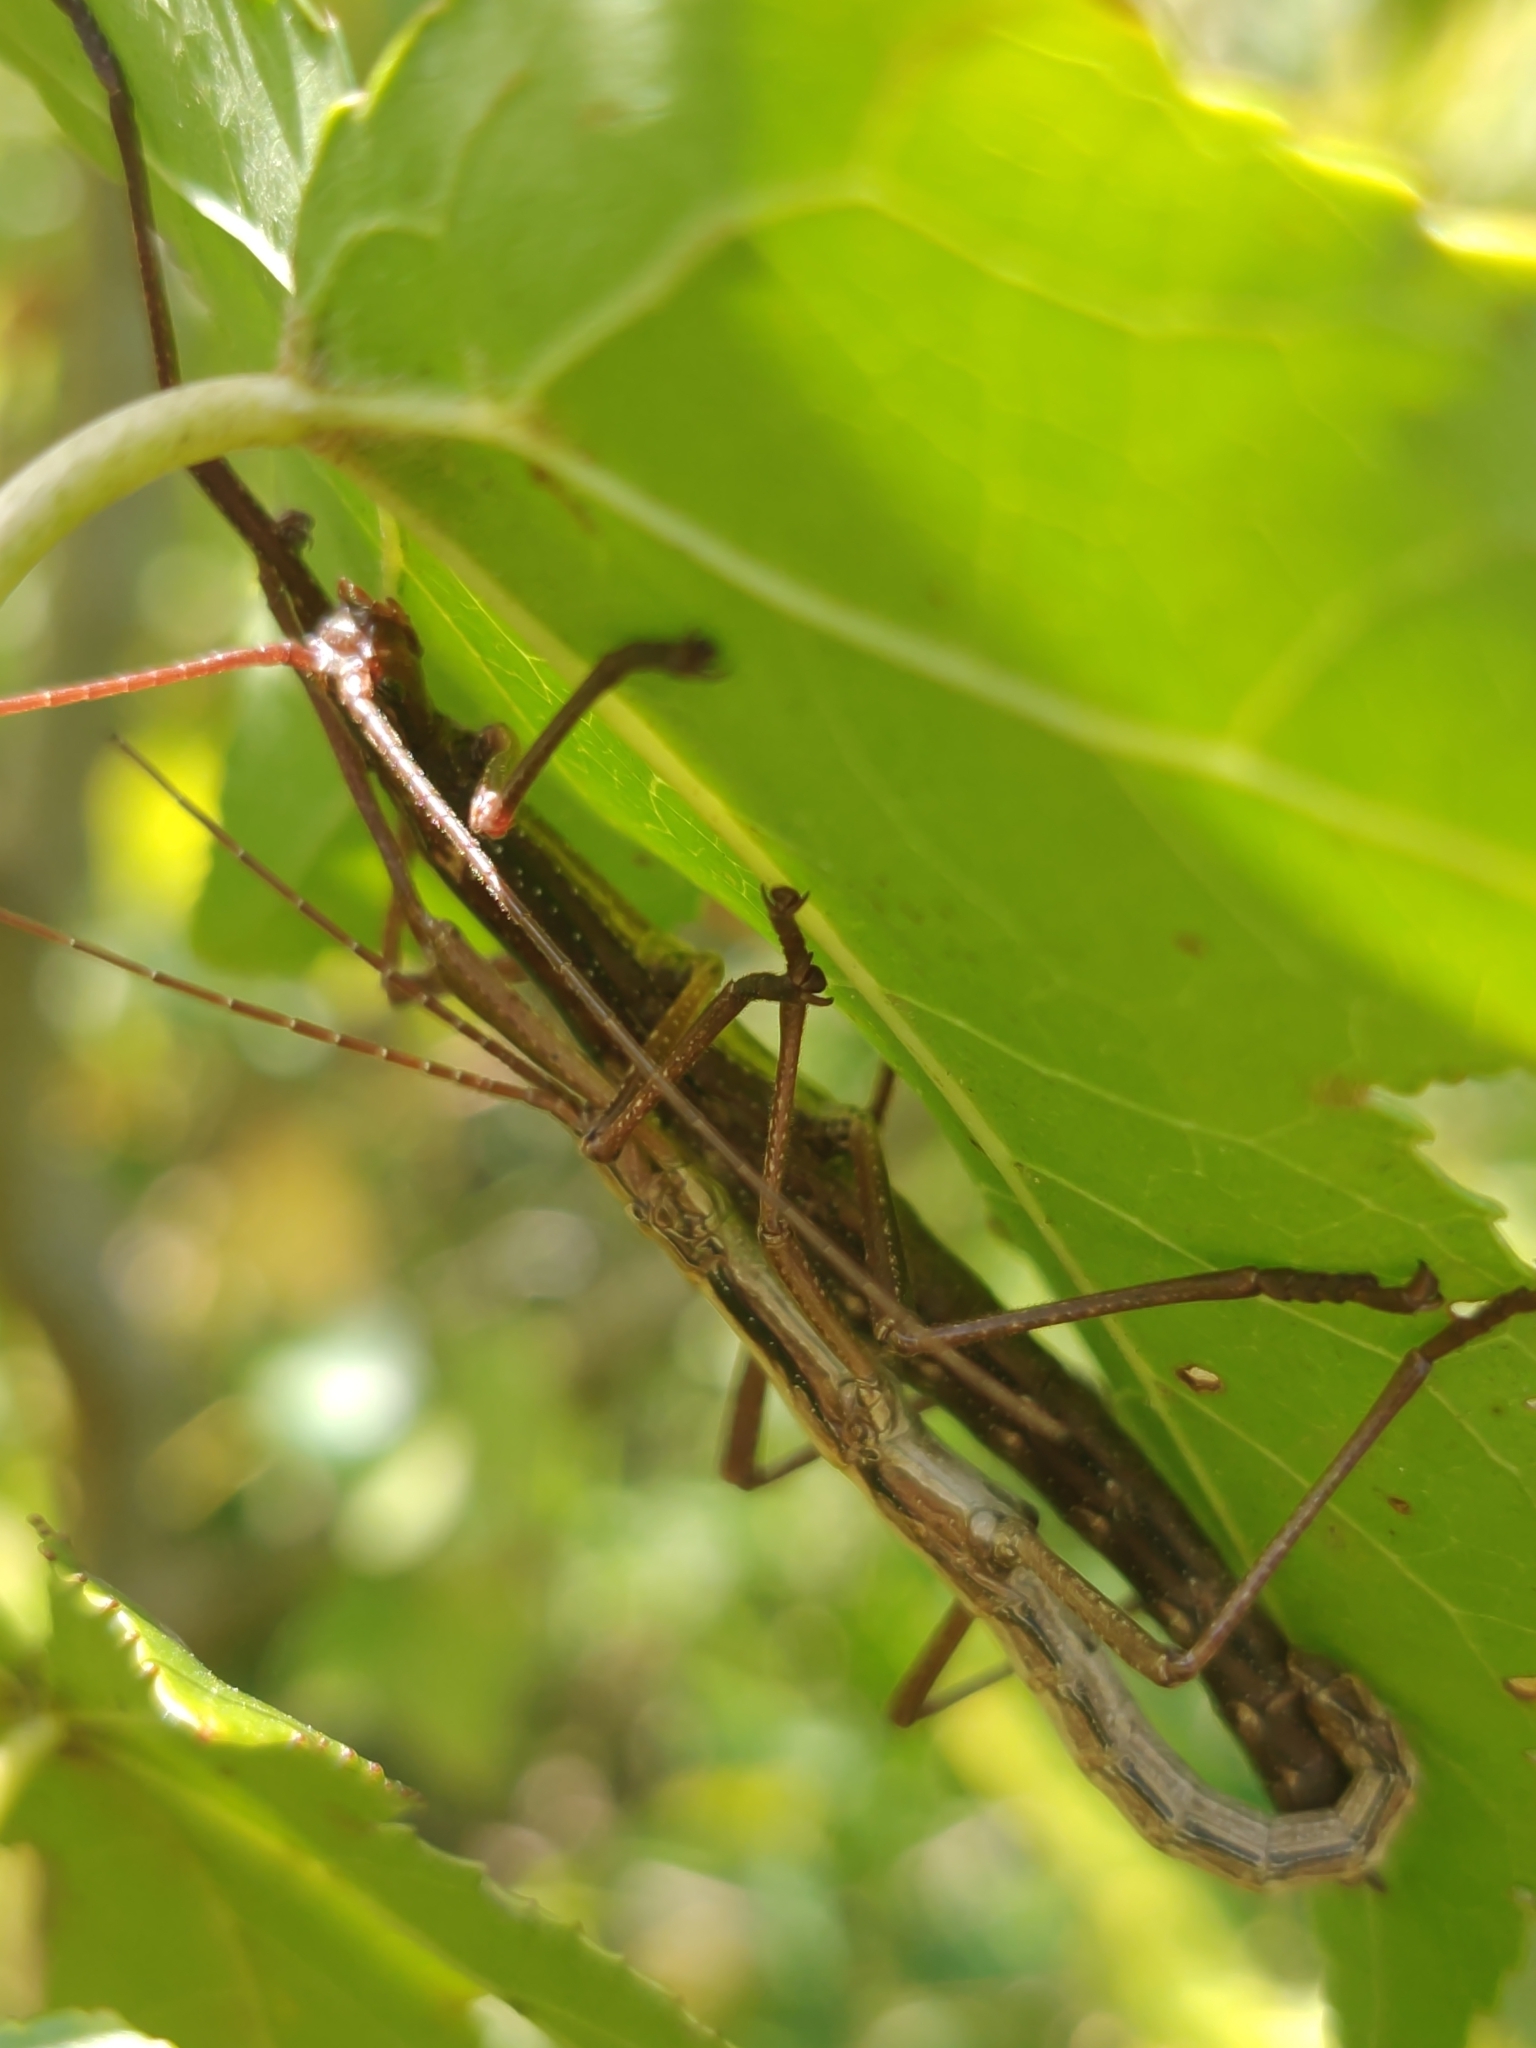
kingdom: Animalia
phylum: Arthropoda
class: Insecta
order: Phasmida
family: Pseudophasmatidae
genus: Anisomorpha
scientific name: Anisomorpha buprestoides
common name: Florida stick insect
